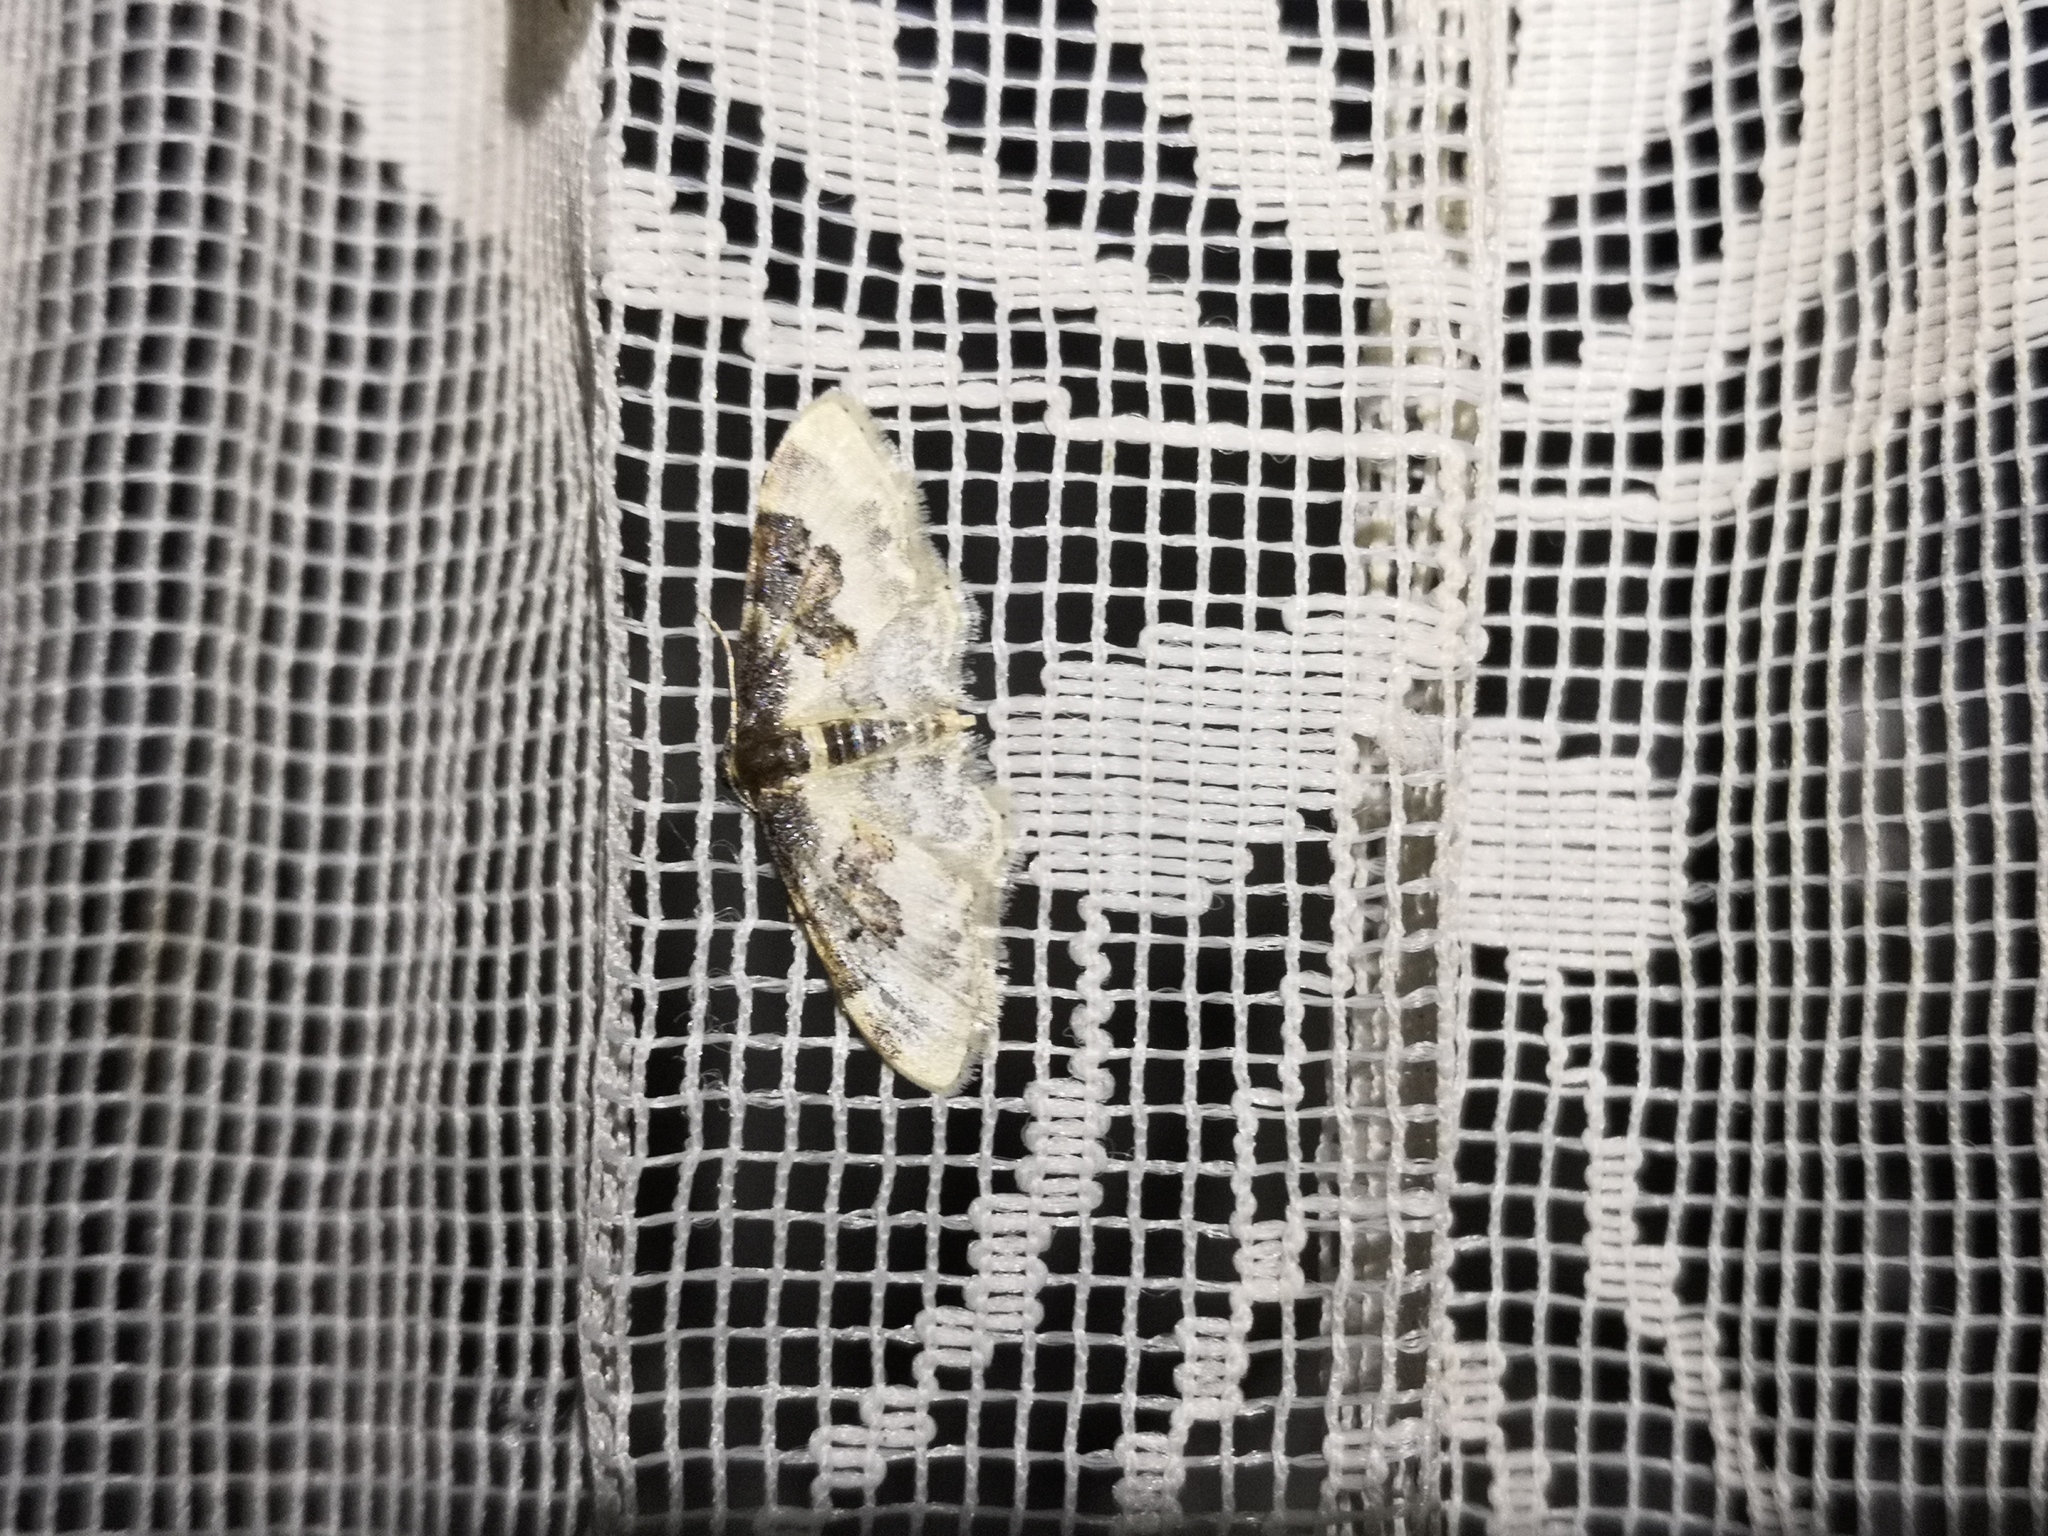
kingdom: Animalia
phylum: Arthropoda
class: Insecta
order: Lepidoptera
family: Geometridae
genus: Idaea
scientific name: Idaea rusticata
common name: Least carpet
